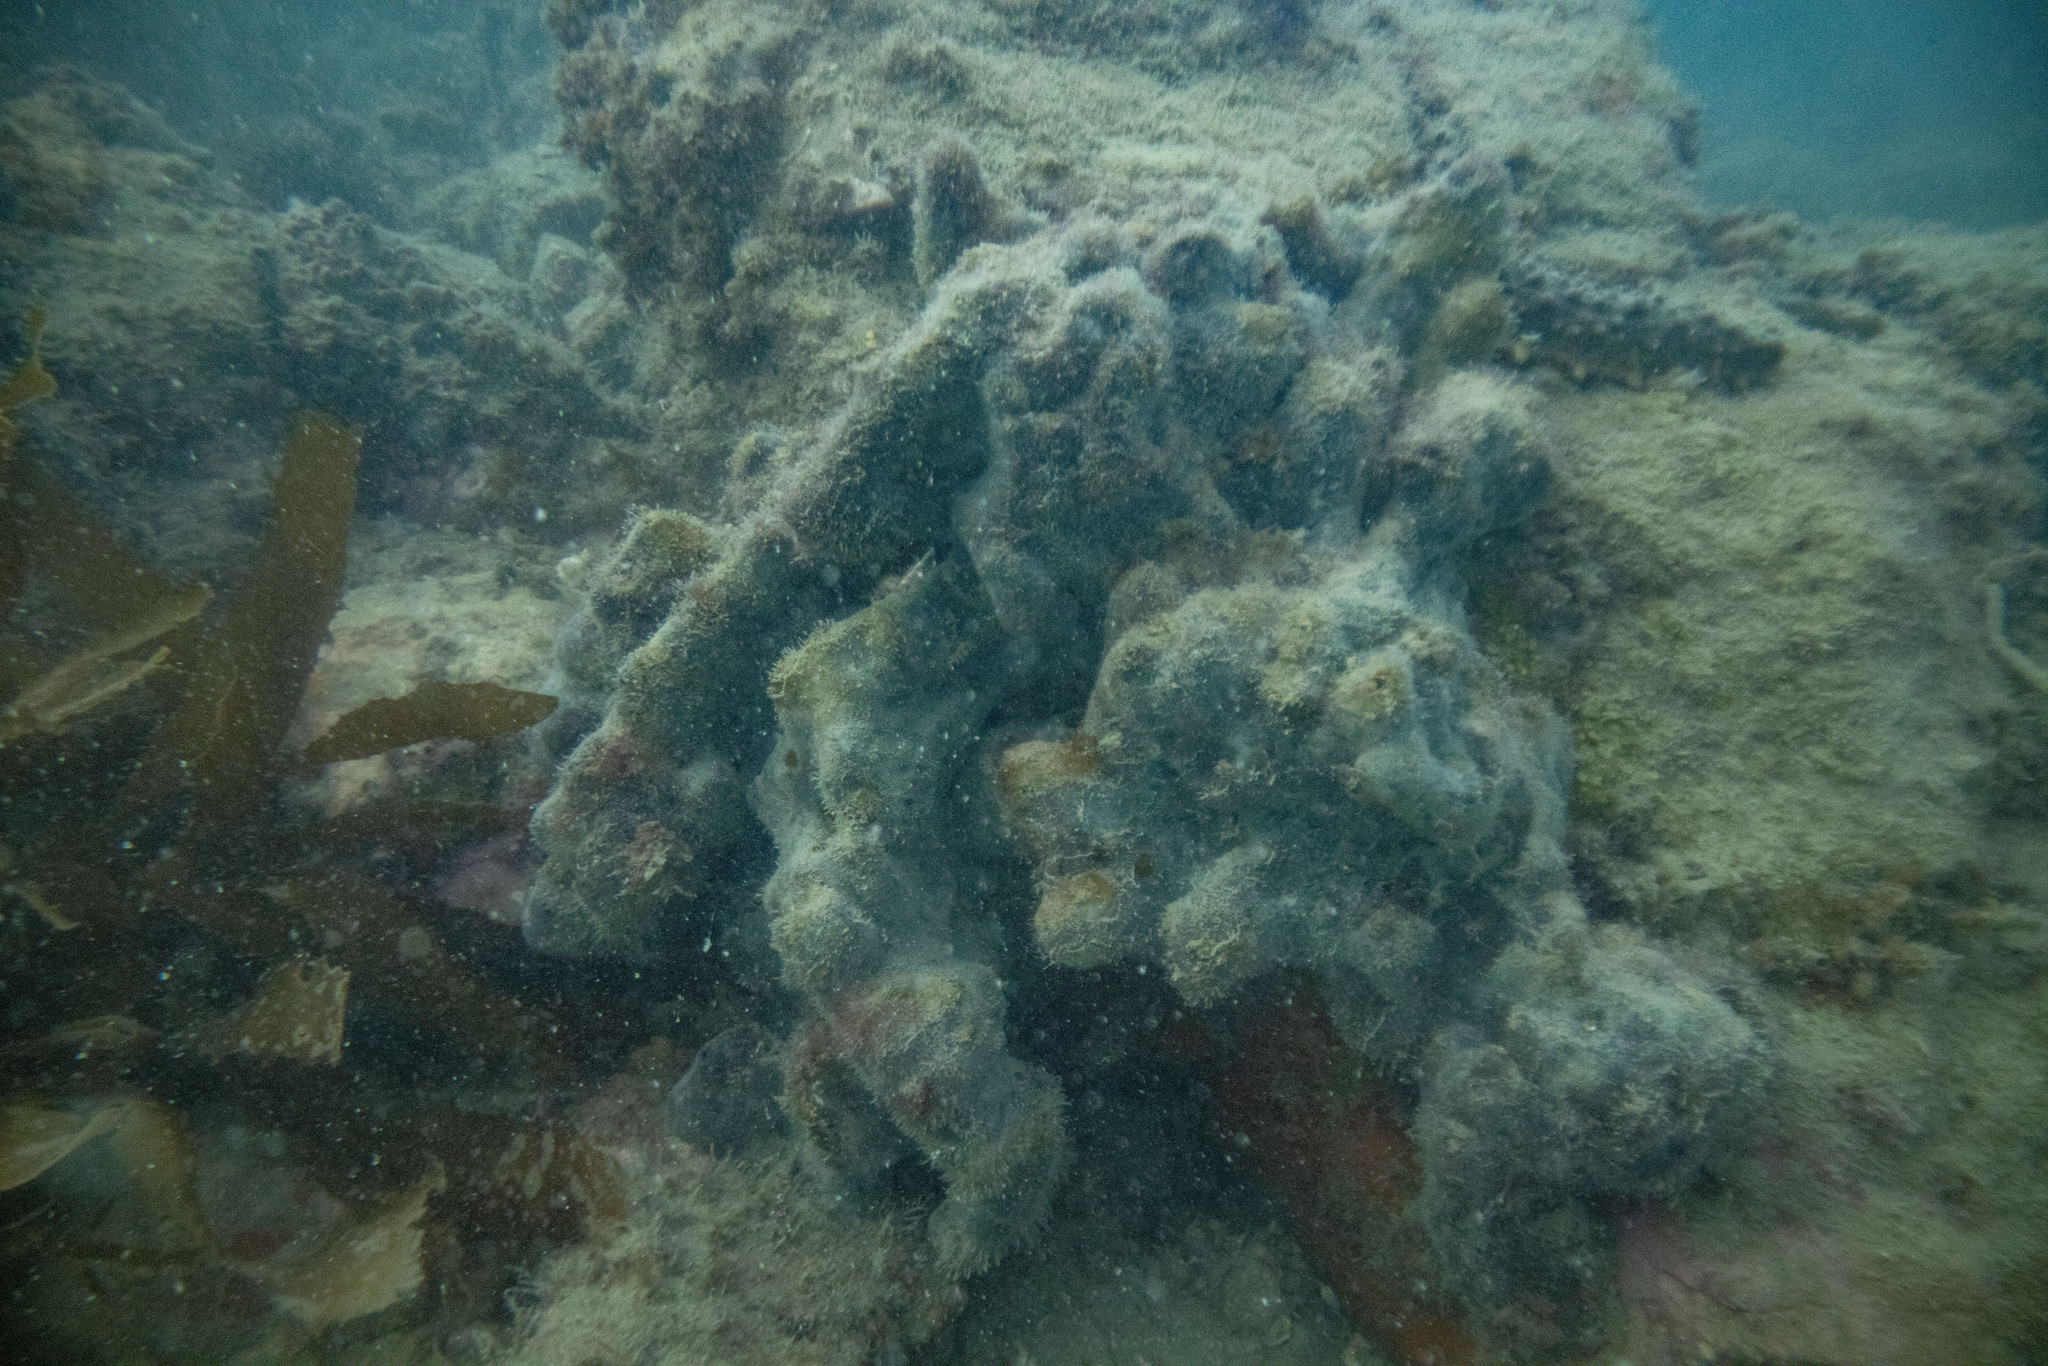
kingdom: Animalia
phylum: Porifera
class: Demospongiae
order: Tetractinellida
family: Ancorinidae
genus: Ecionemia
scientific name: Ecionemia alata
